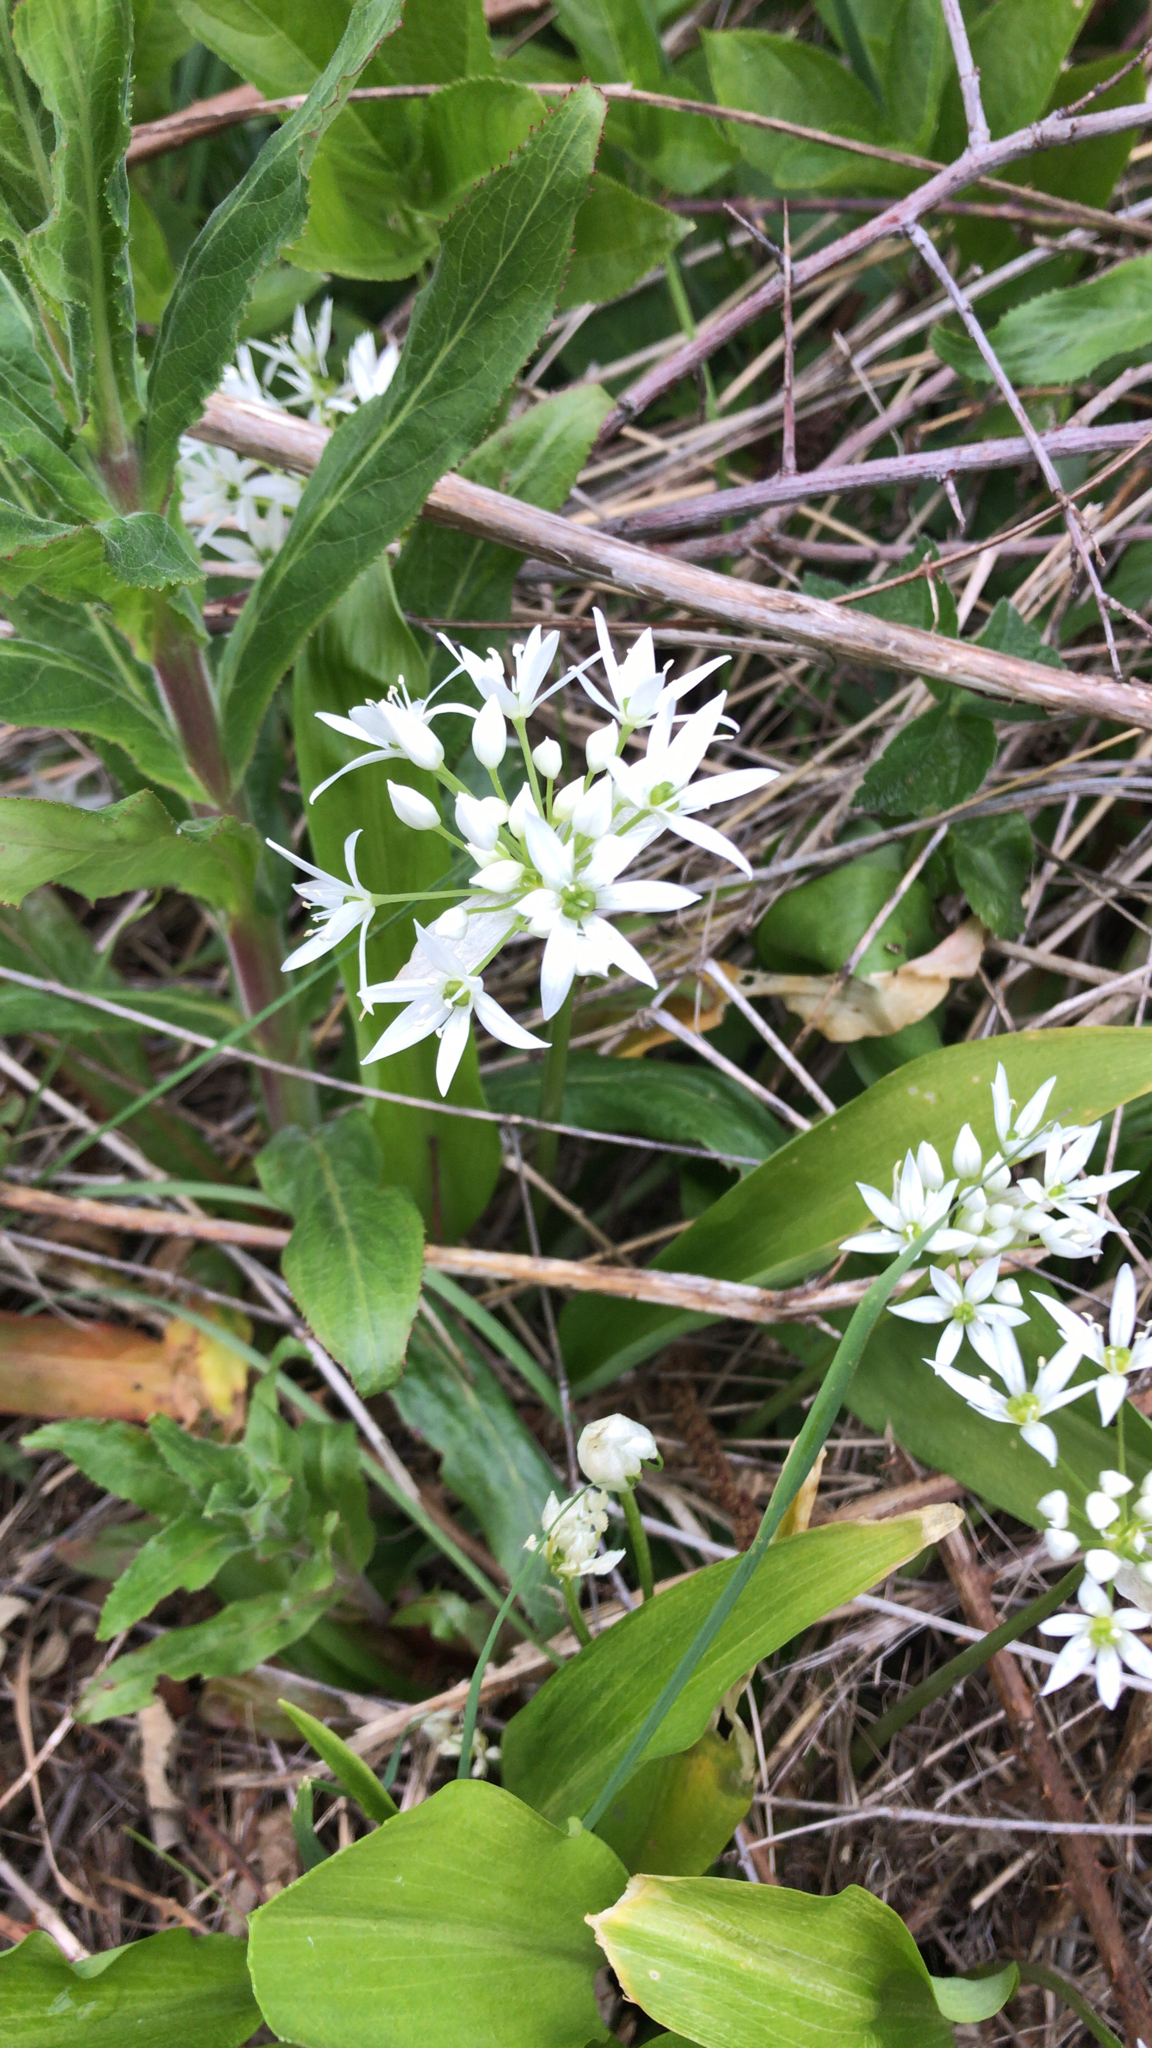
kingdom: Plantae
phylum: Tracheophyta
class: Liliopsida
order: Asparagales
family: Amaryllidaceae
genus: Allium
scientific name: Allium ursinum
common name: Ramsons
